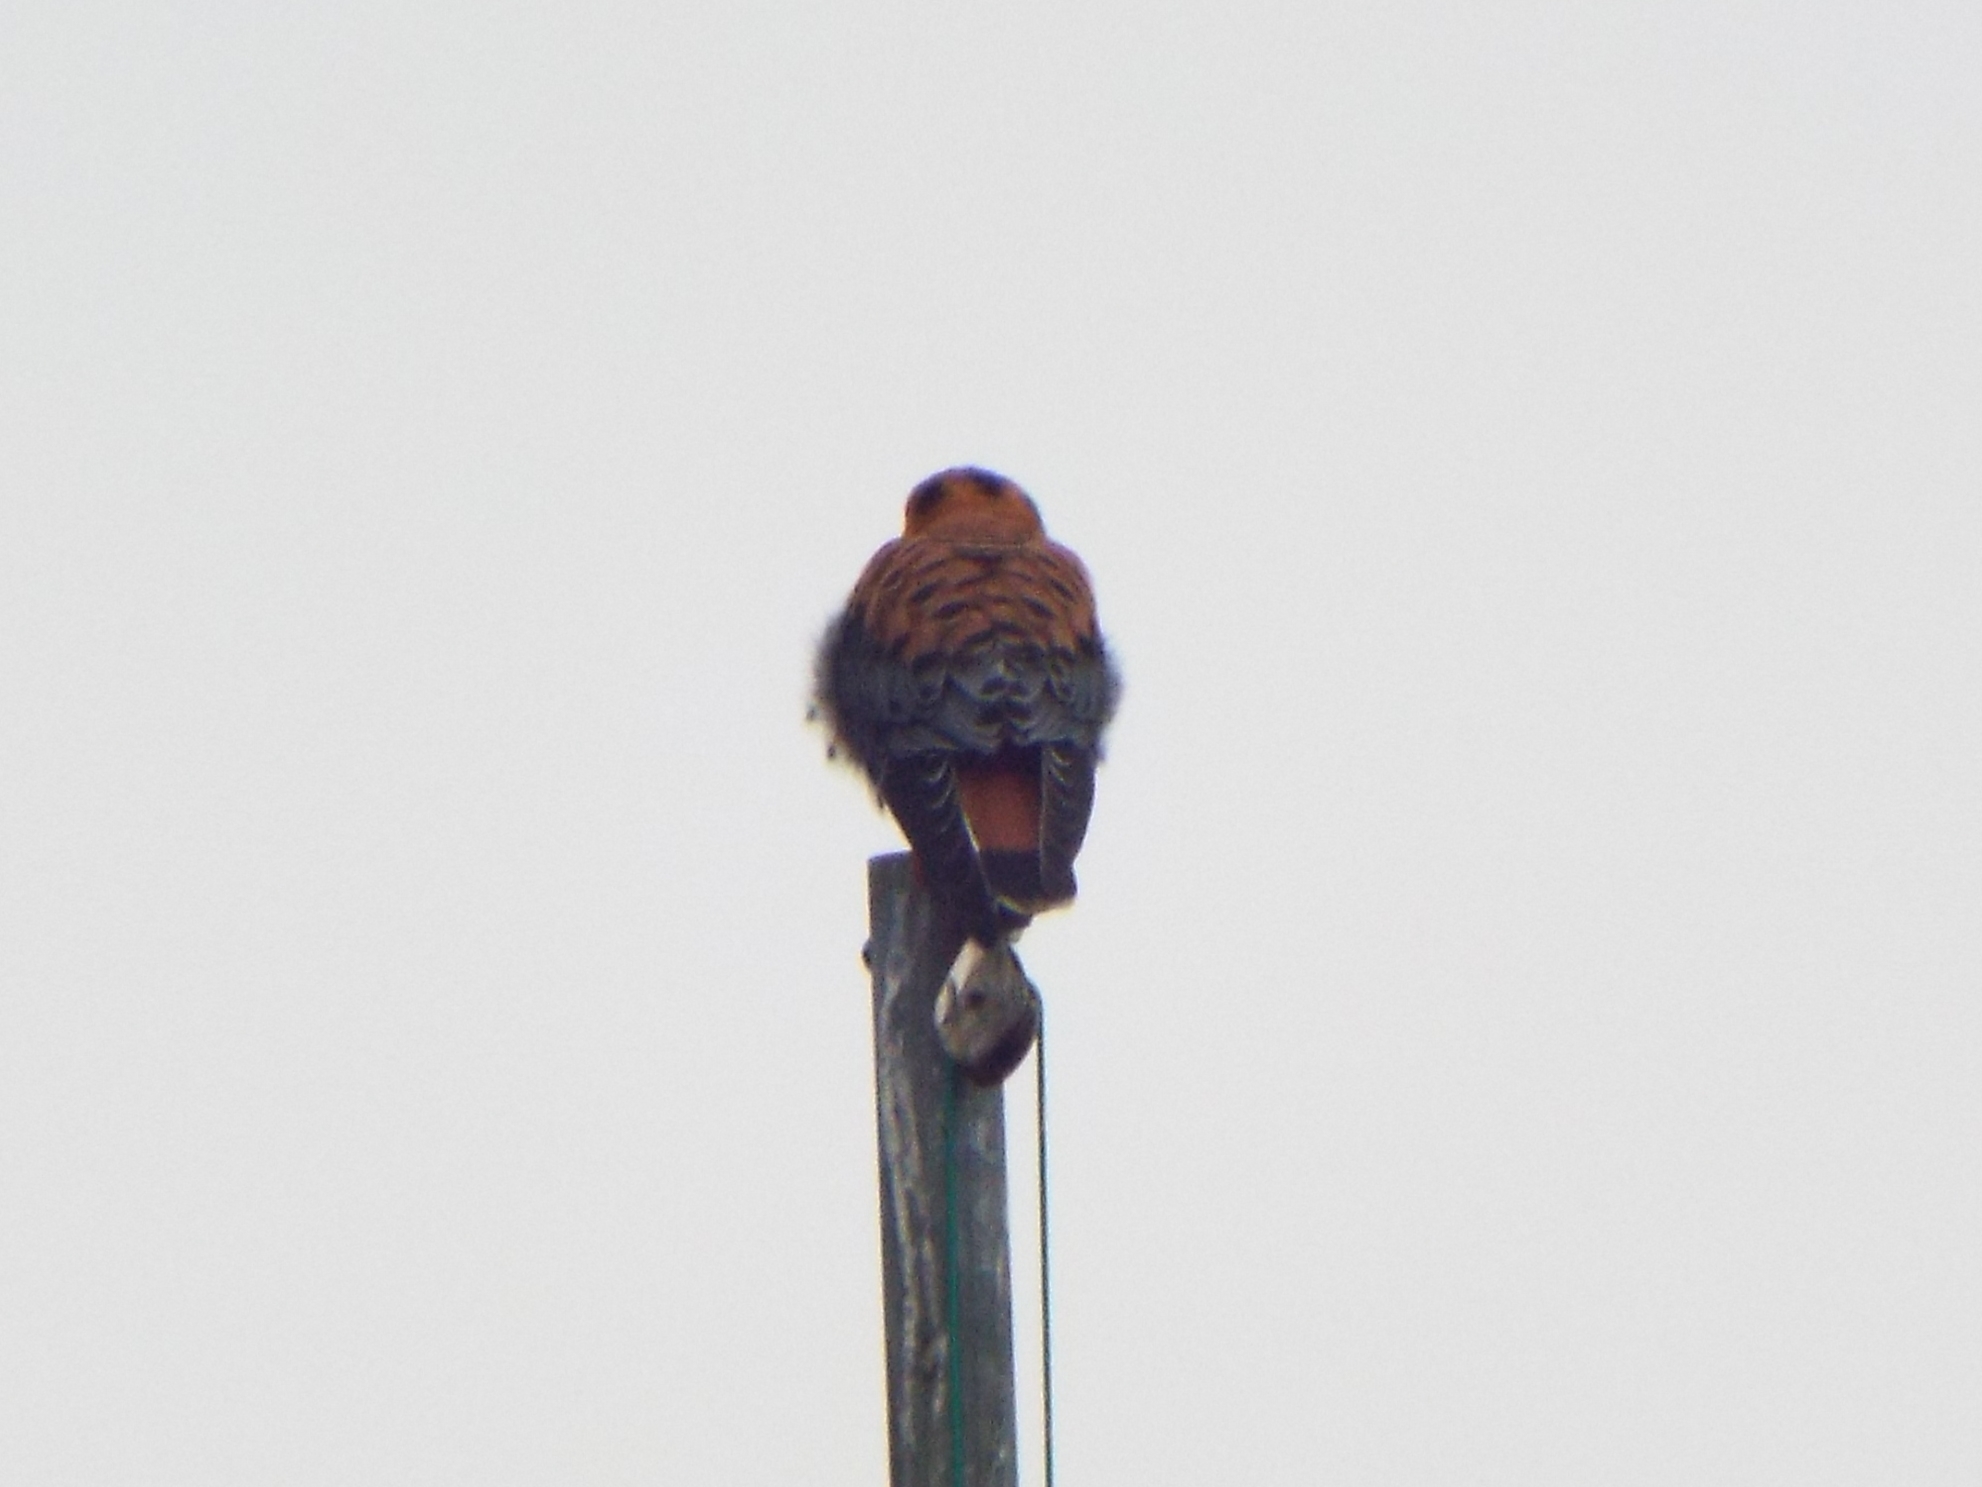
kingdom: Animalia
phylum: Chordata
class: Aves
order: Falconiformes
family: Falconidae
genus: Falco
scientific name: Falco sparverius
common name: American kestrel
